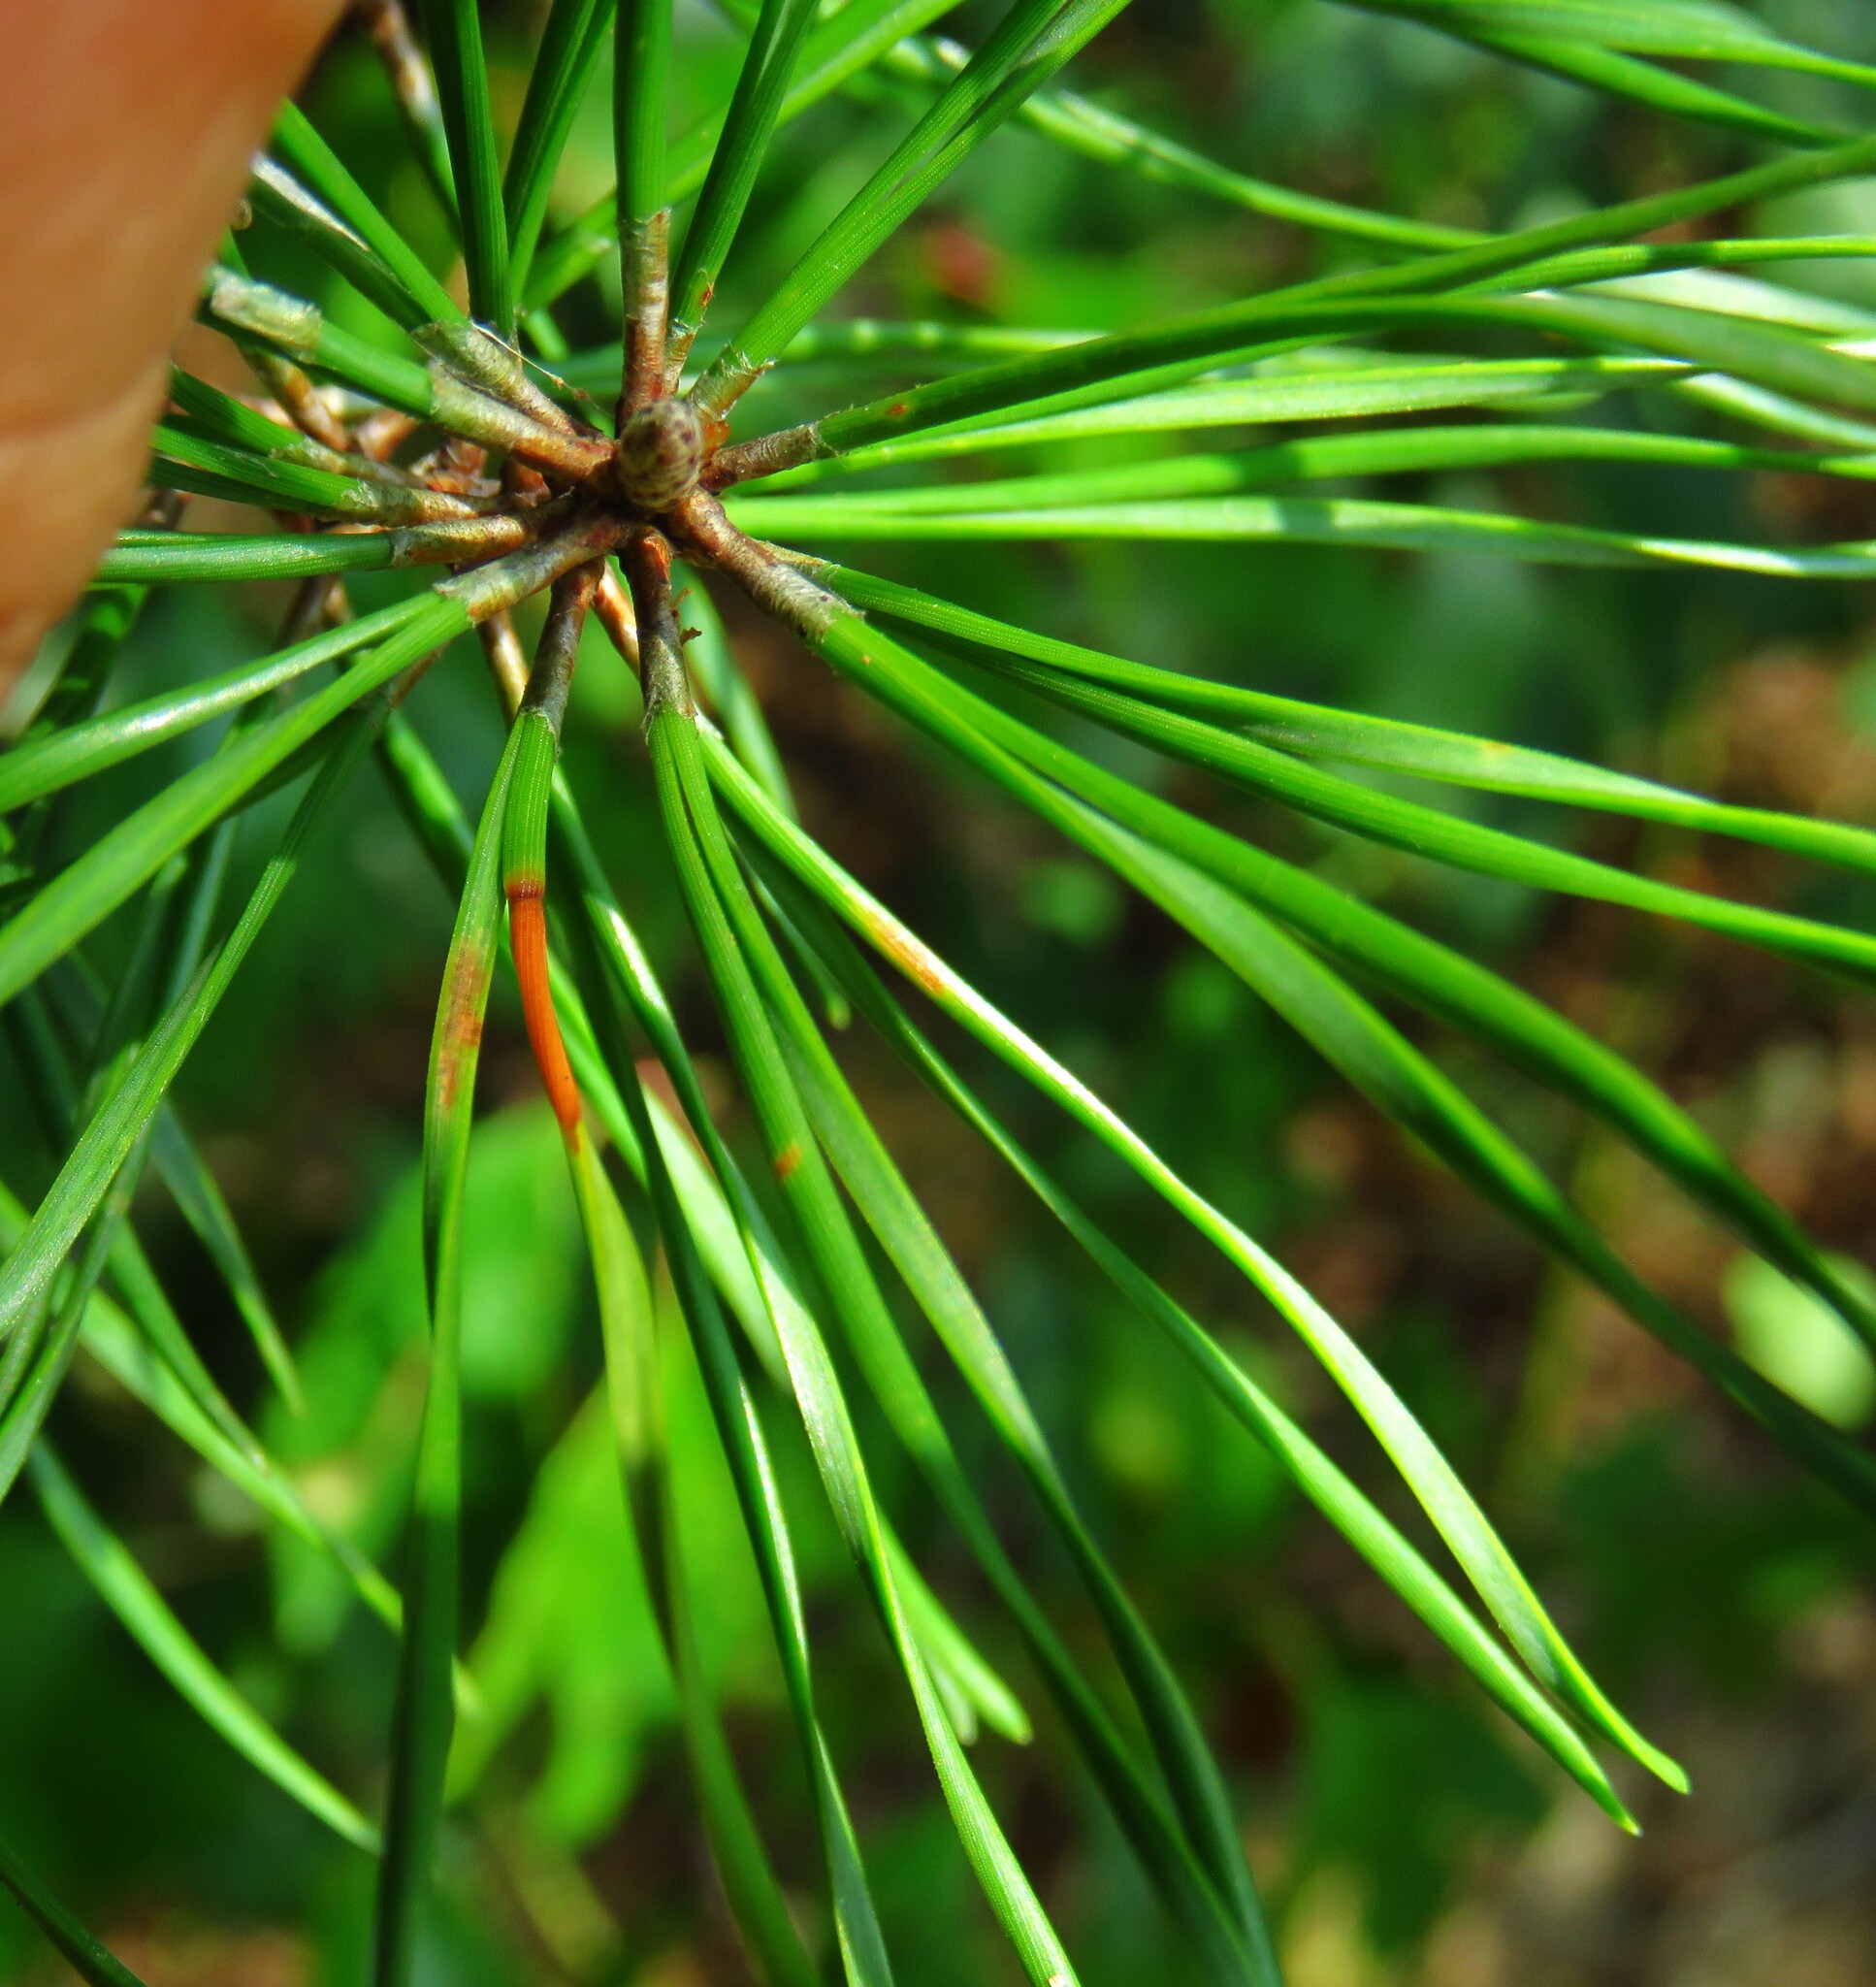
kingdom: Plantae
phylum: Tracheophyta
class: Pinopsida
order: Pinales
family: Pinaceae
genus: Pinus
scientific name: Pinus virginiana
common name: Scrub pine
